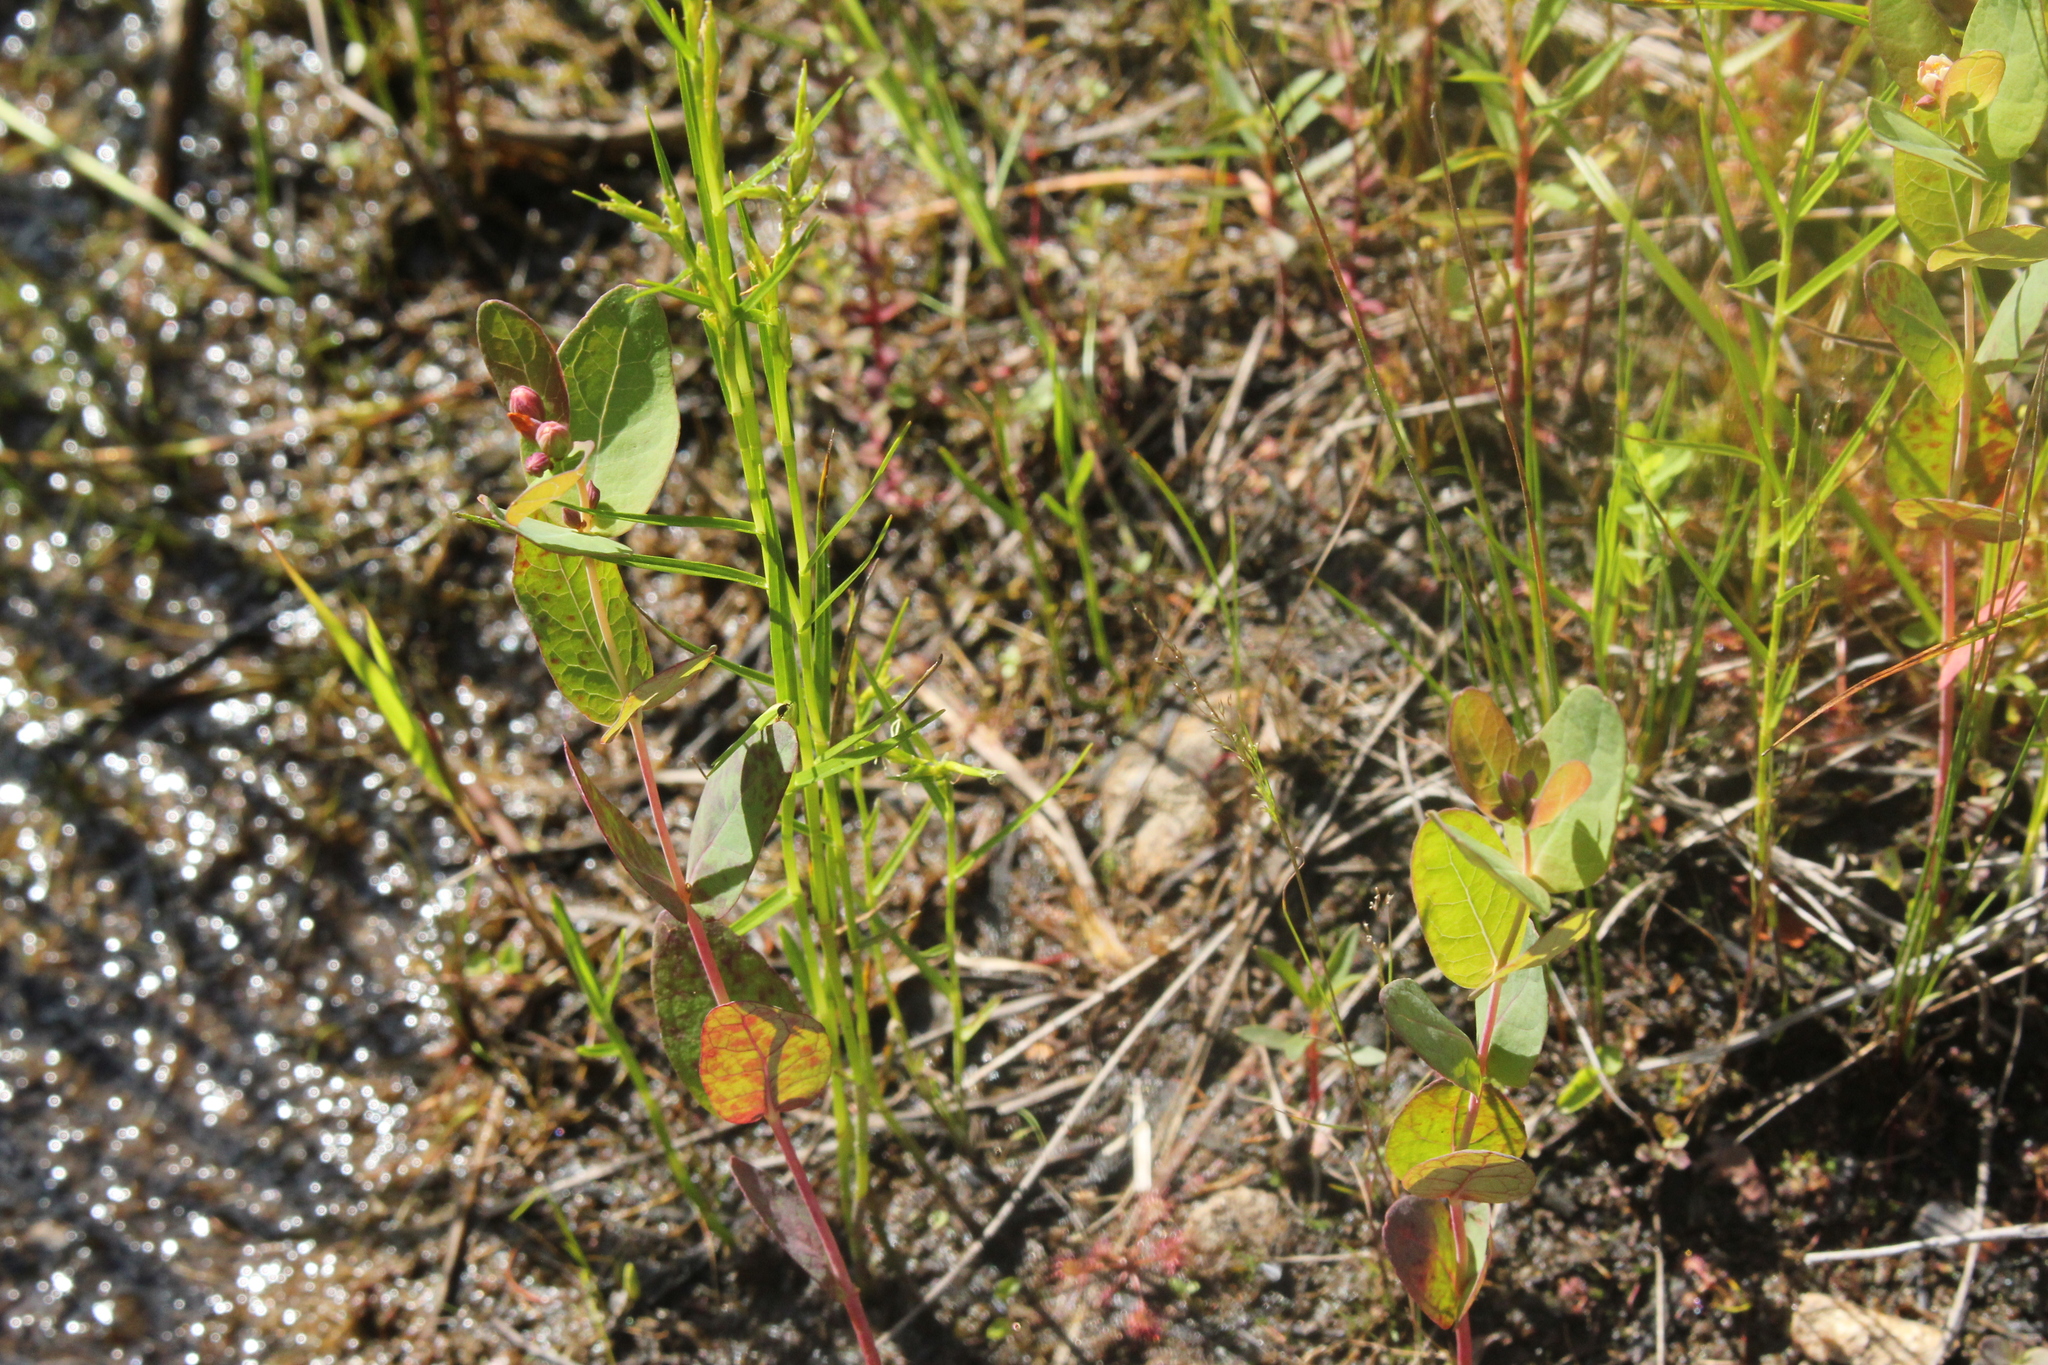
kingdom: Plantae
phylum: Tracheophyta
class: Magnoliopsida
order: Malpighiales
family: Hypericaceae
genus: Triadenum
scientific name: Triadenum fraseri
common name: Fraser's marsh st. johnswort
